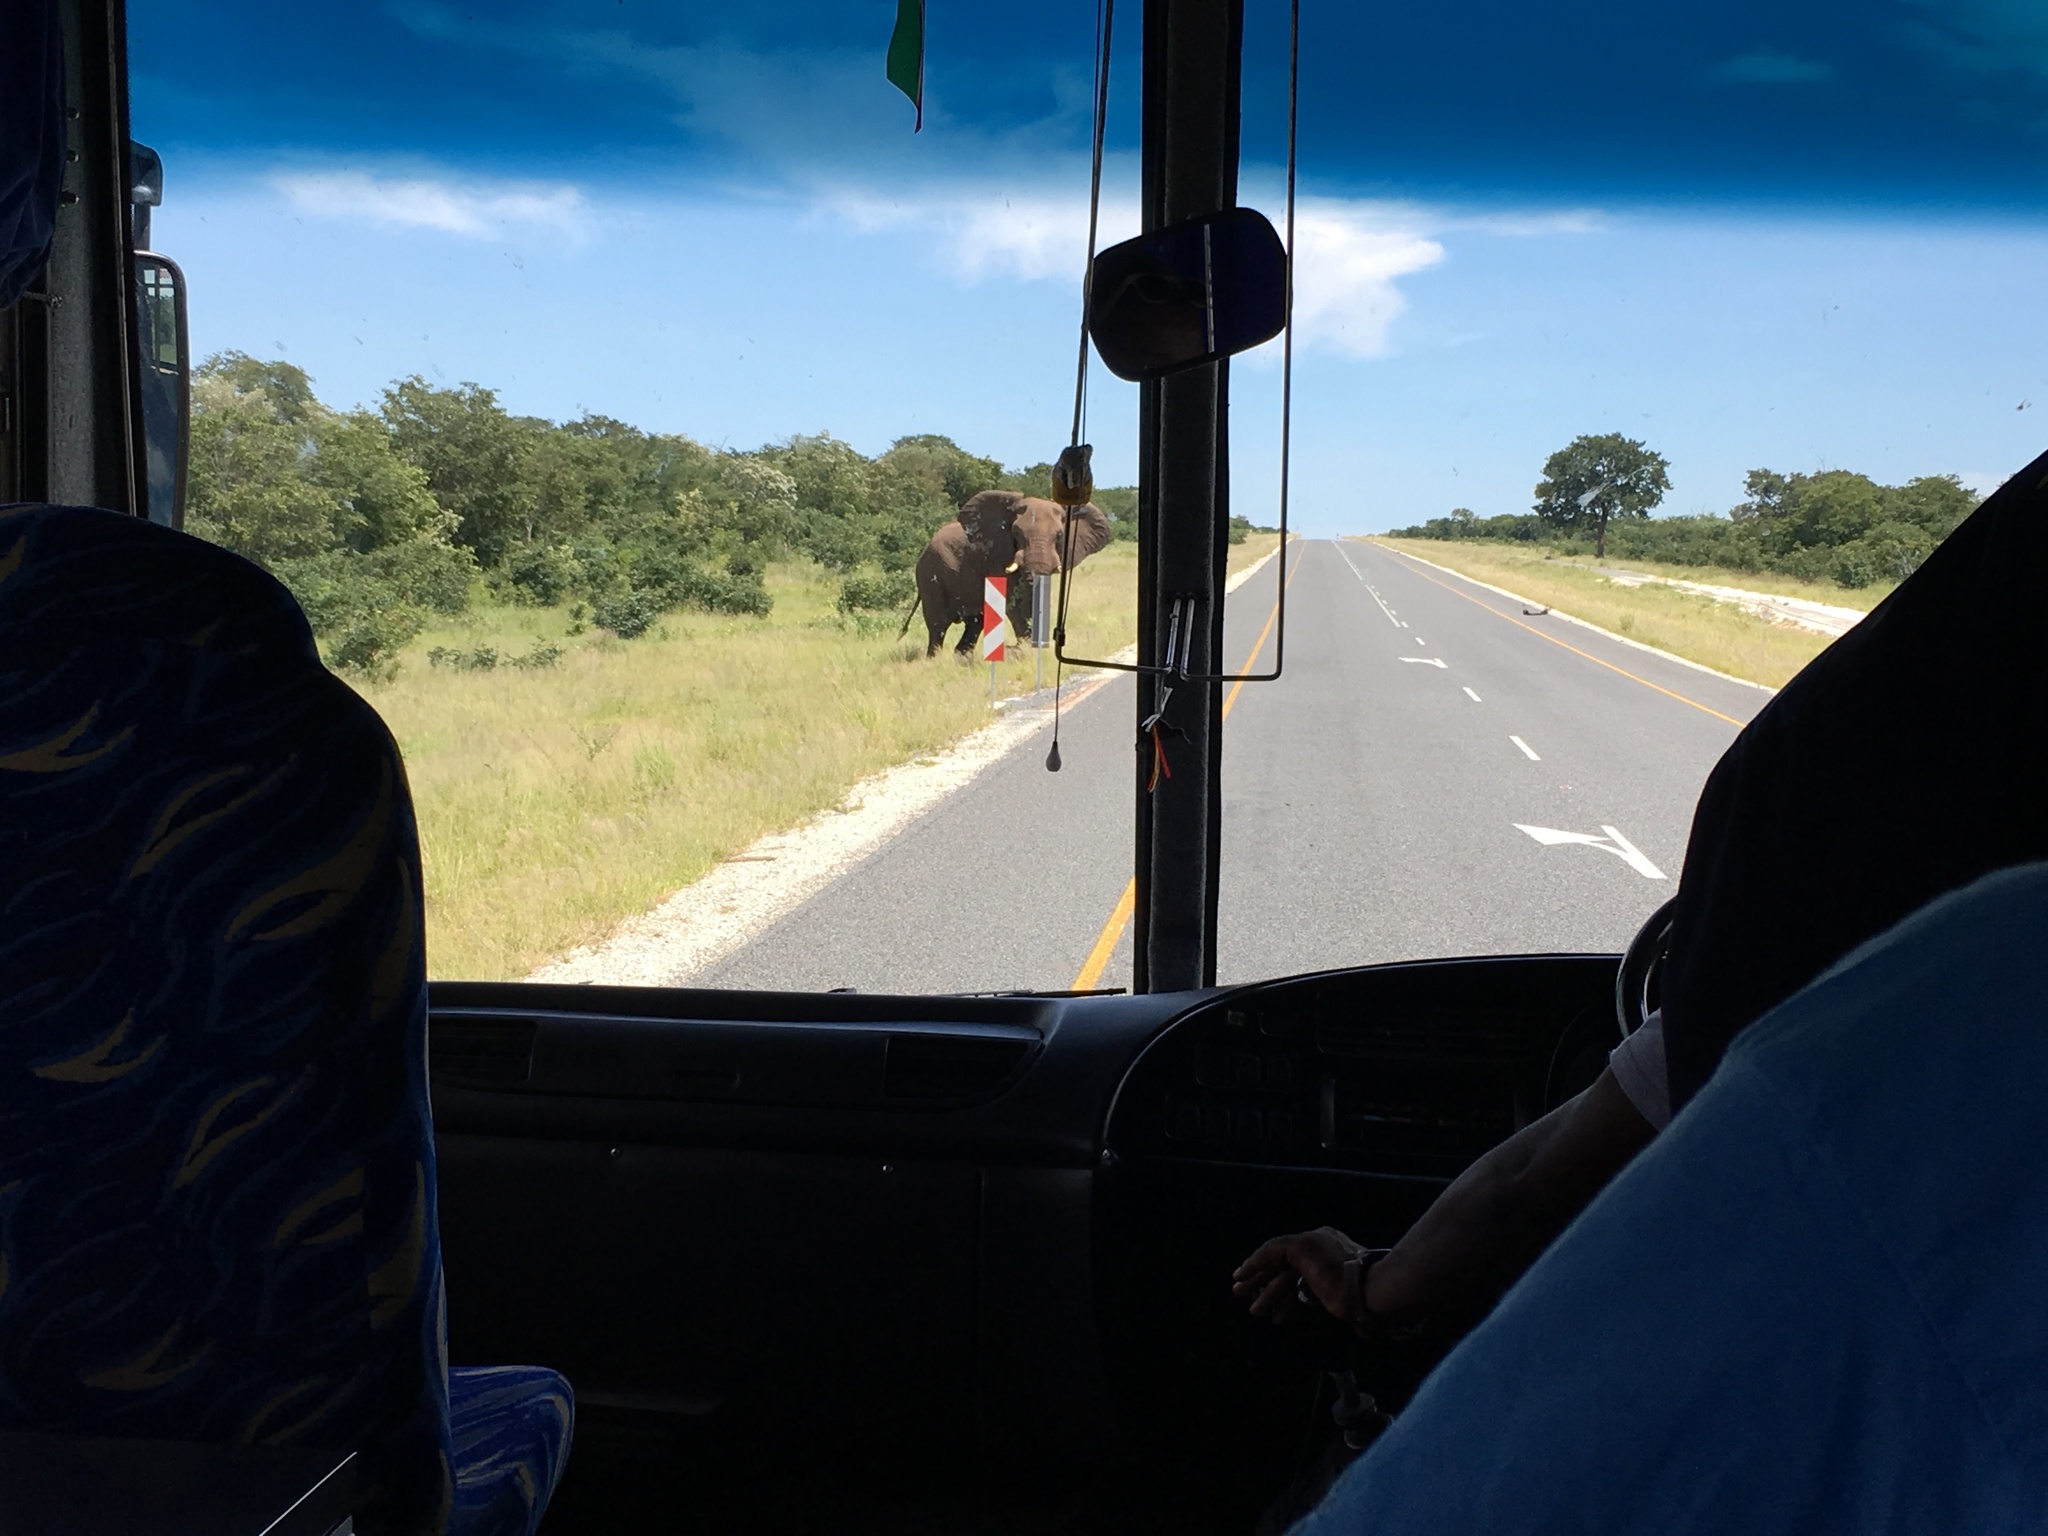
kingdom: Animalia
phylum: Chordata
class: Mammalia
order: Proboscidea
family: Elephantidae
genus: Loxodonta
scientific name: Loxodonta africana
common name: African elephant
